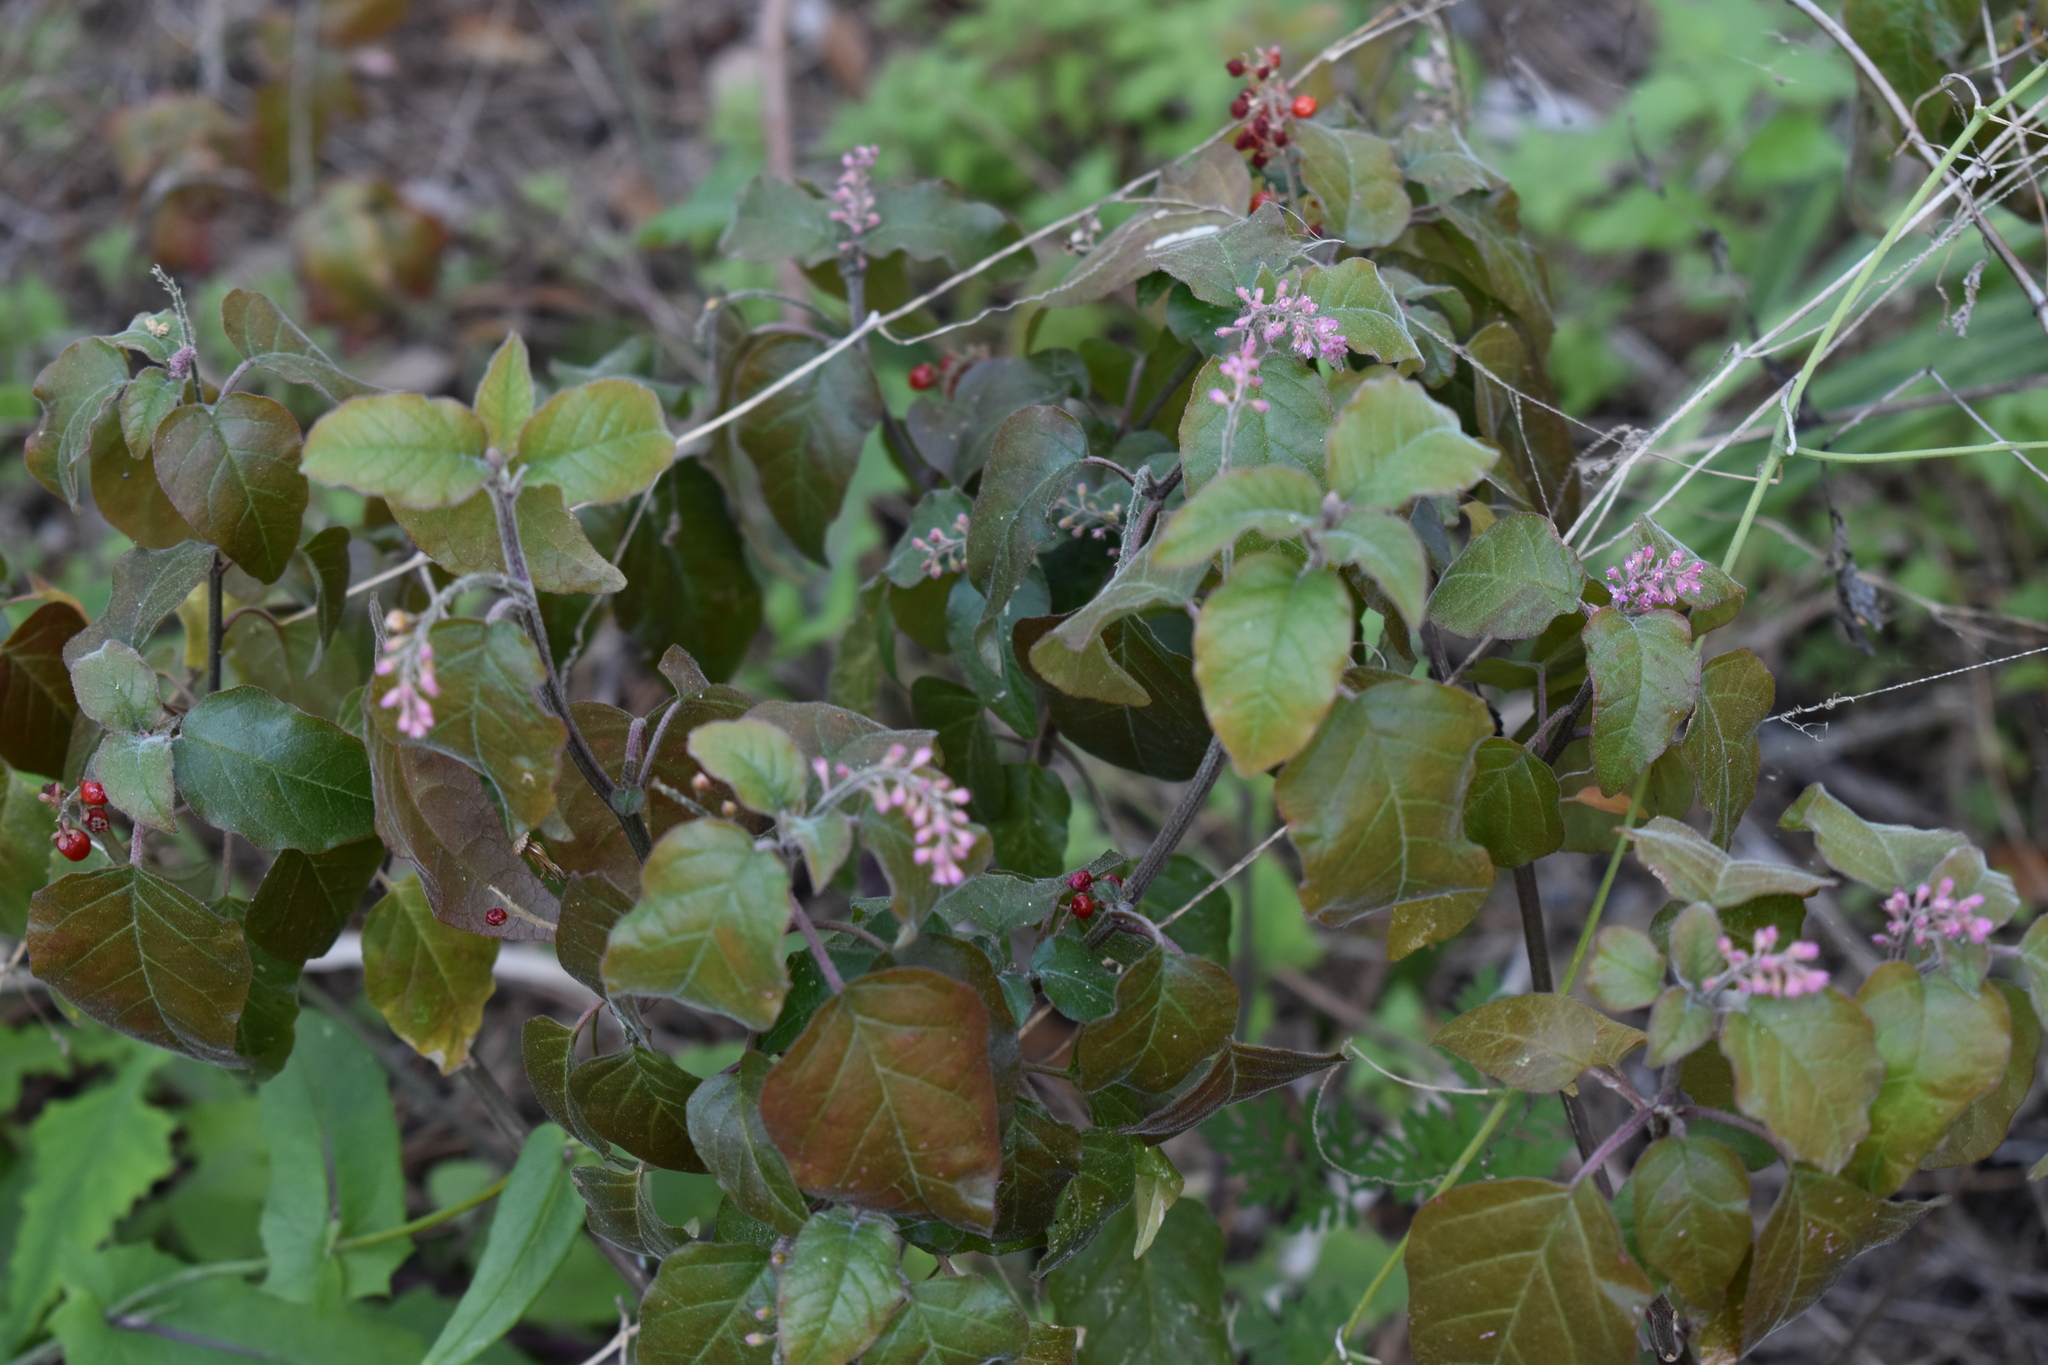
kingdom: Plantae
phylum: Tracheophyta
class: Magnoliopsida
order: Caryophyllales
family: Phytolaccaceae
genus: Rivina
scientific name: Rivina humilis
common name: Rougeplant
